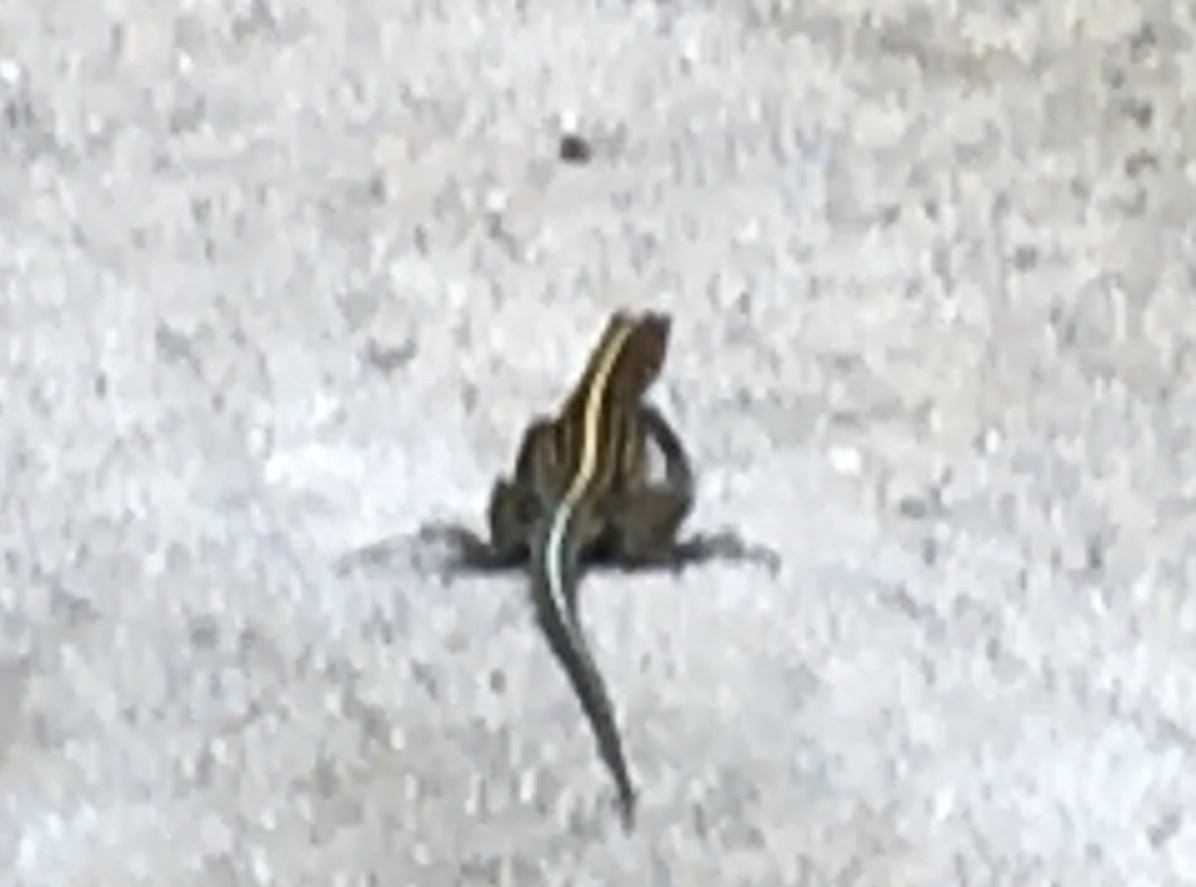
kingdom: Animalia
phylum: Chordata
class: Squamata
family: Teiidae
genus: Holcosus
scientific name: Holcosus festivus
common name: Middle american ameiva
